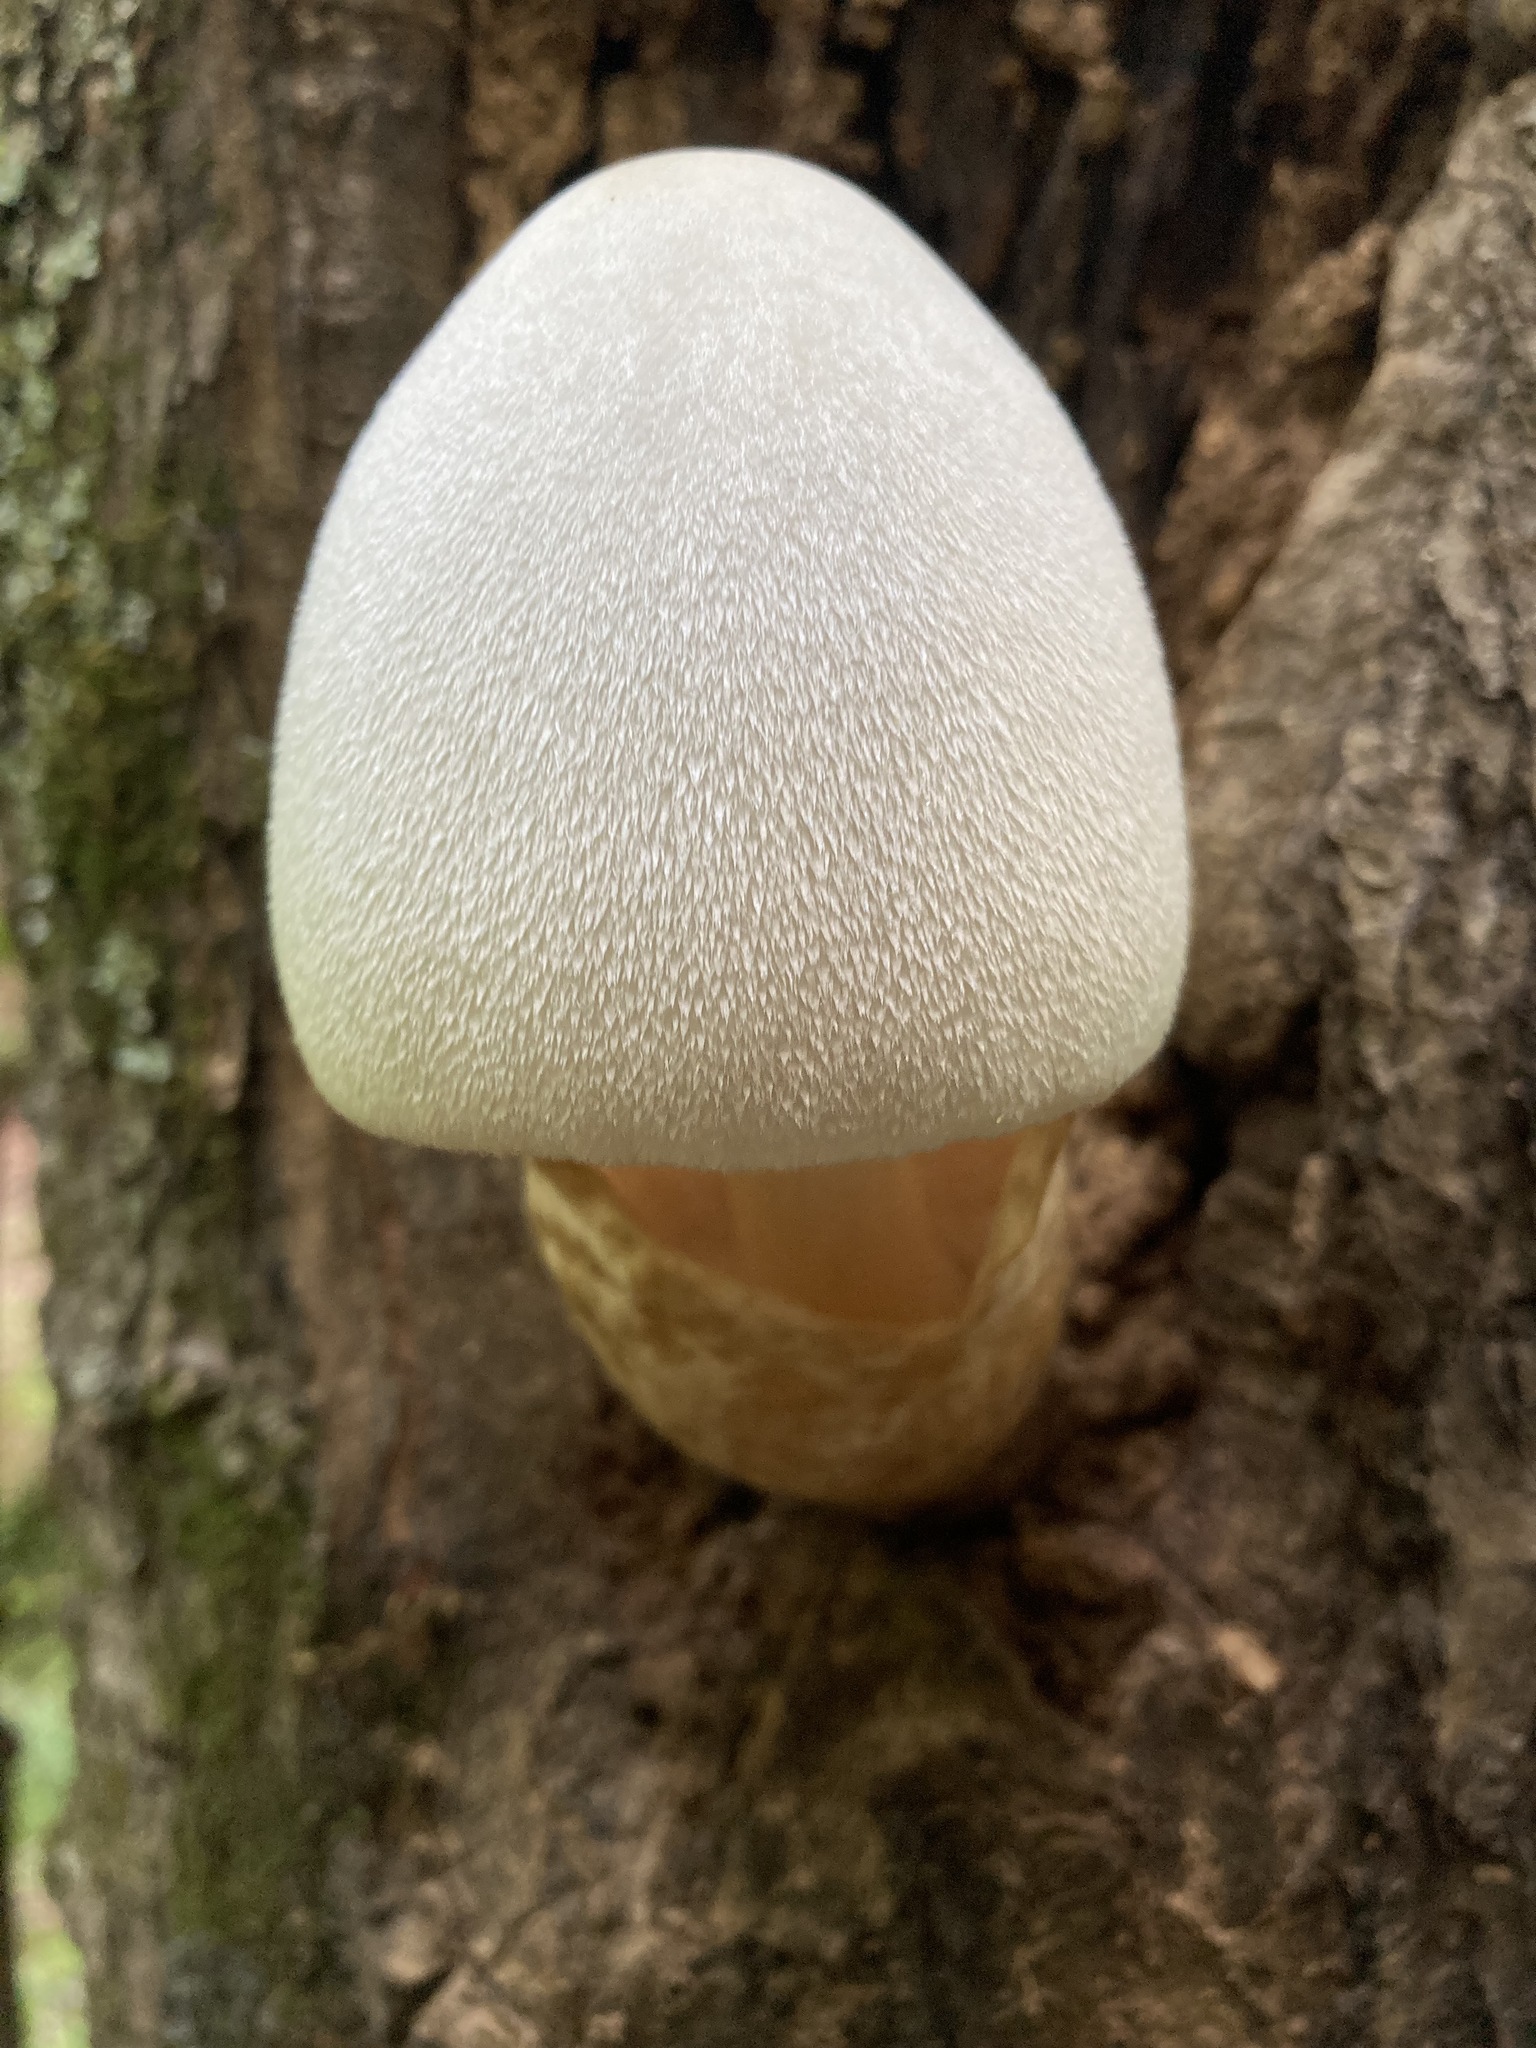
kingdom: Fungi
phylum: Basidiomycota
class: Agaricomycetes
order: Agaricales
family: Pluteaceae
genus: Volvariella
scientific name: Volvariella bombycina
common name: Silky rosegill
